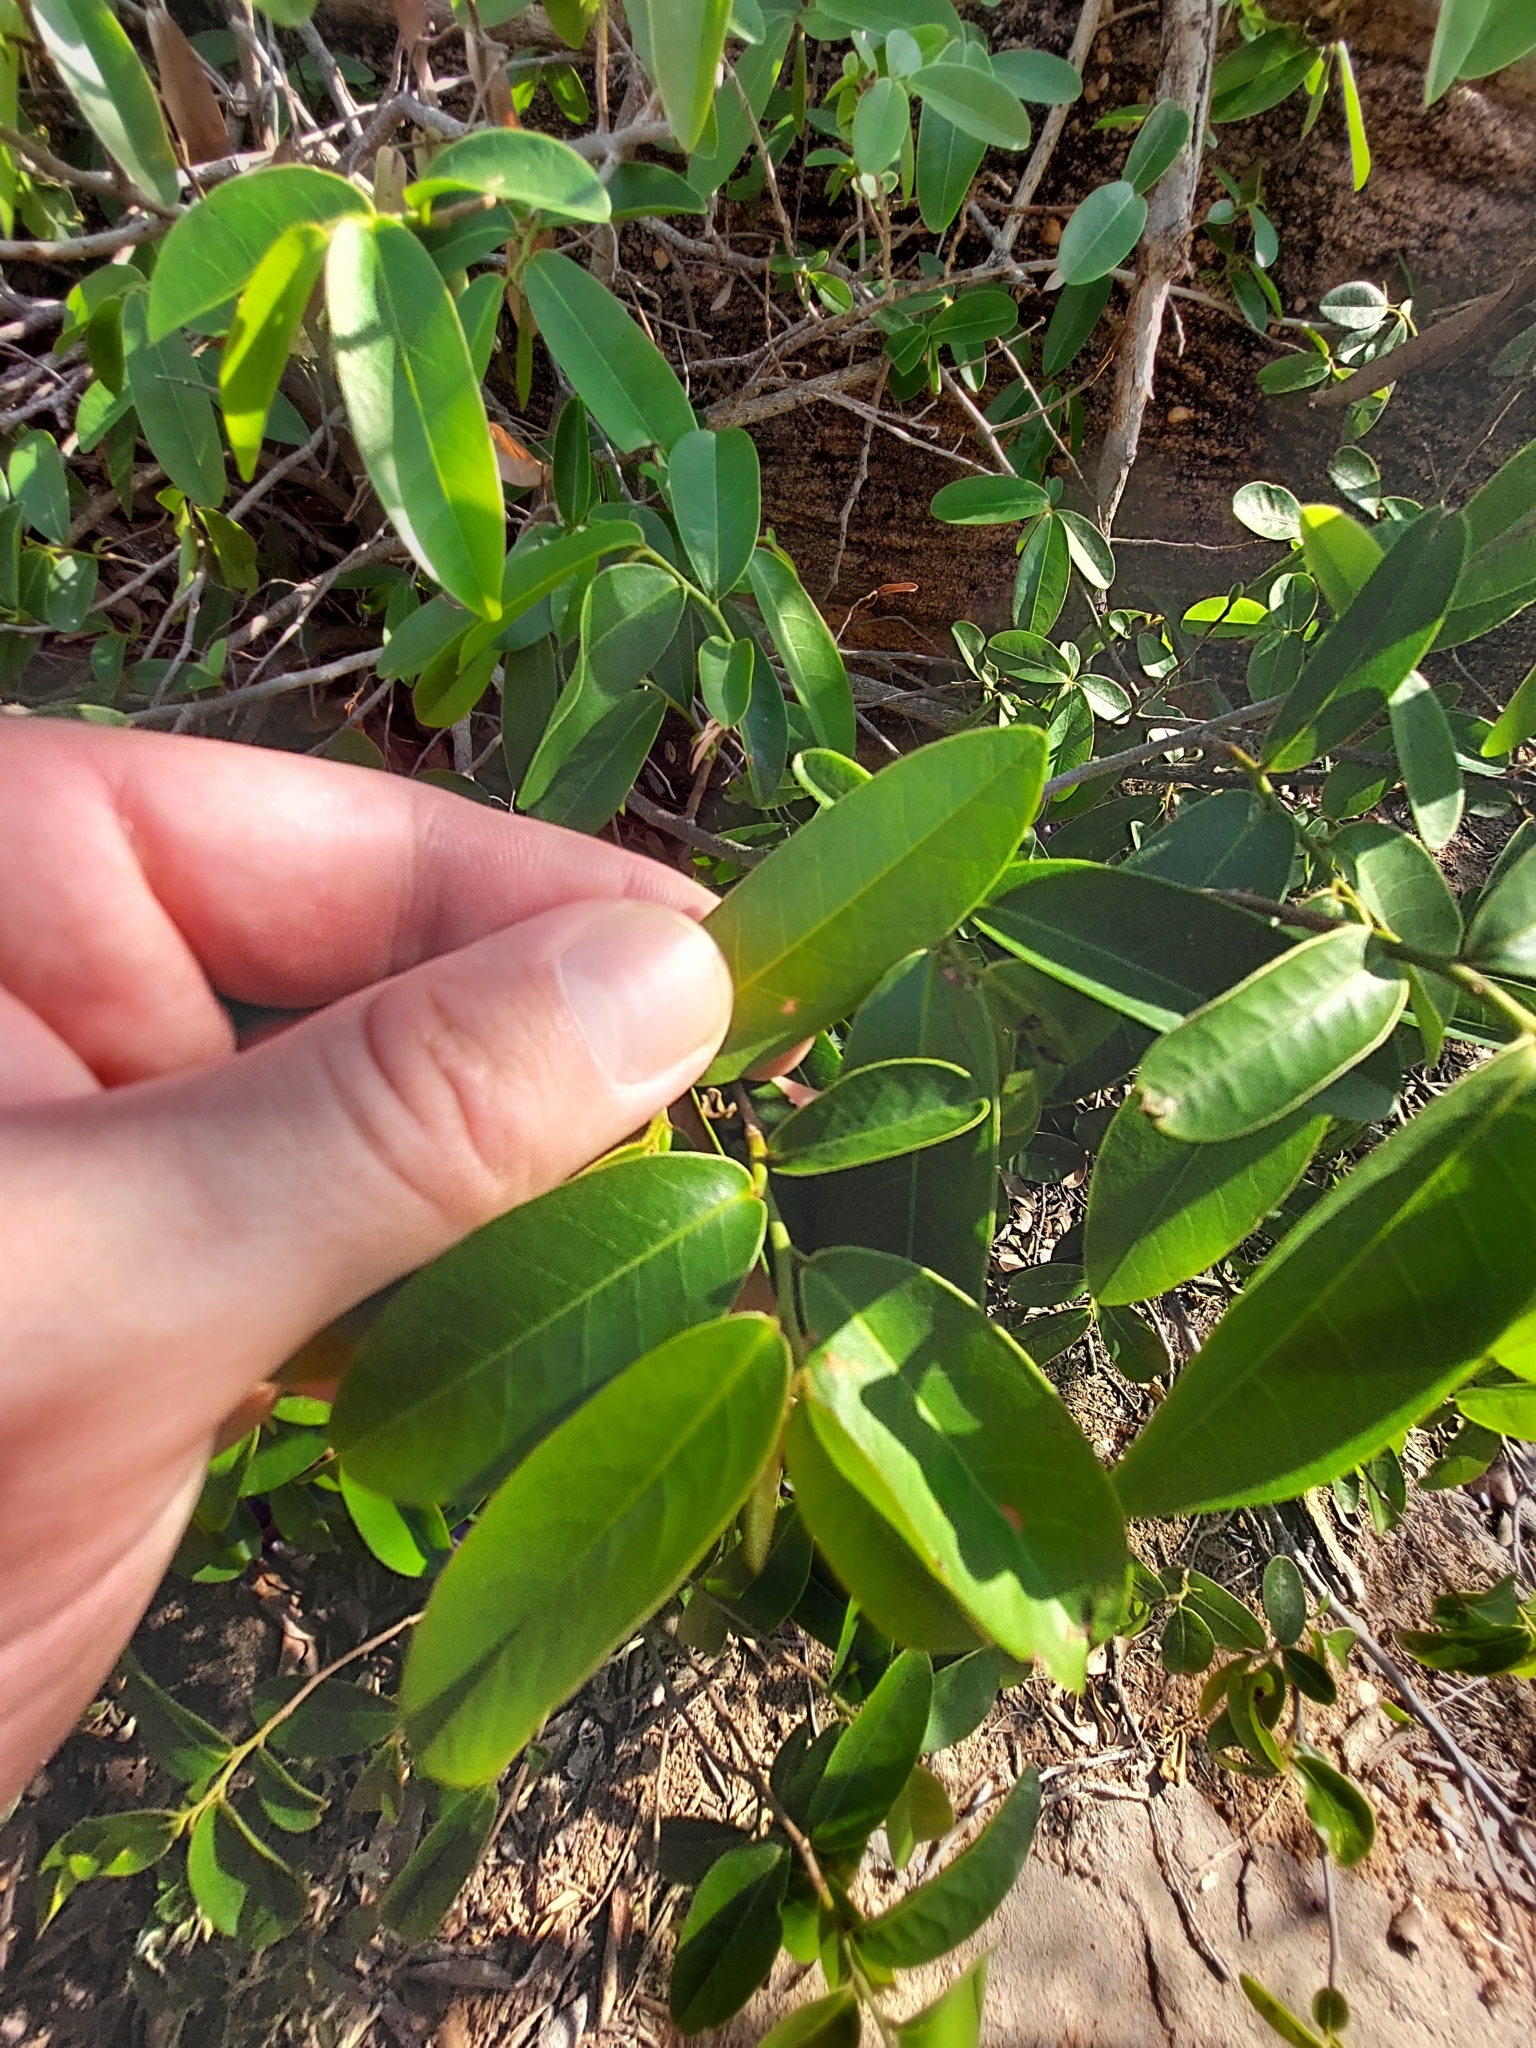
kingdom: Plantae
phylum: Tracheophyta
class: Magnoliopsida
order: Magnoliales
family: Annonaceae
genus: Hexalobus
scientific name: Hexalobus monopetalus
